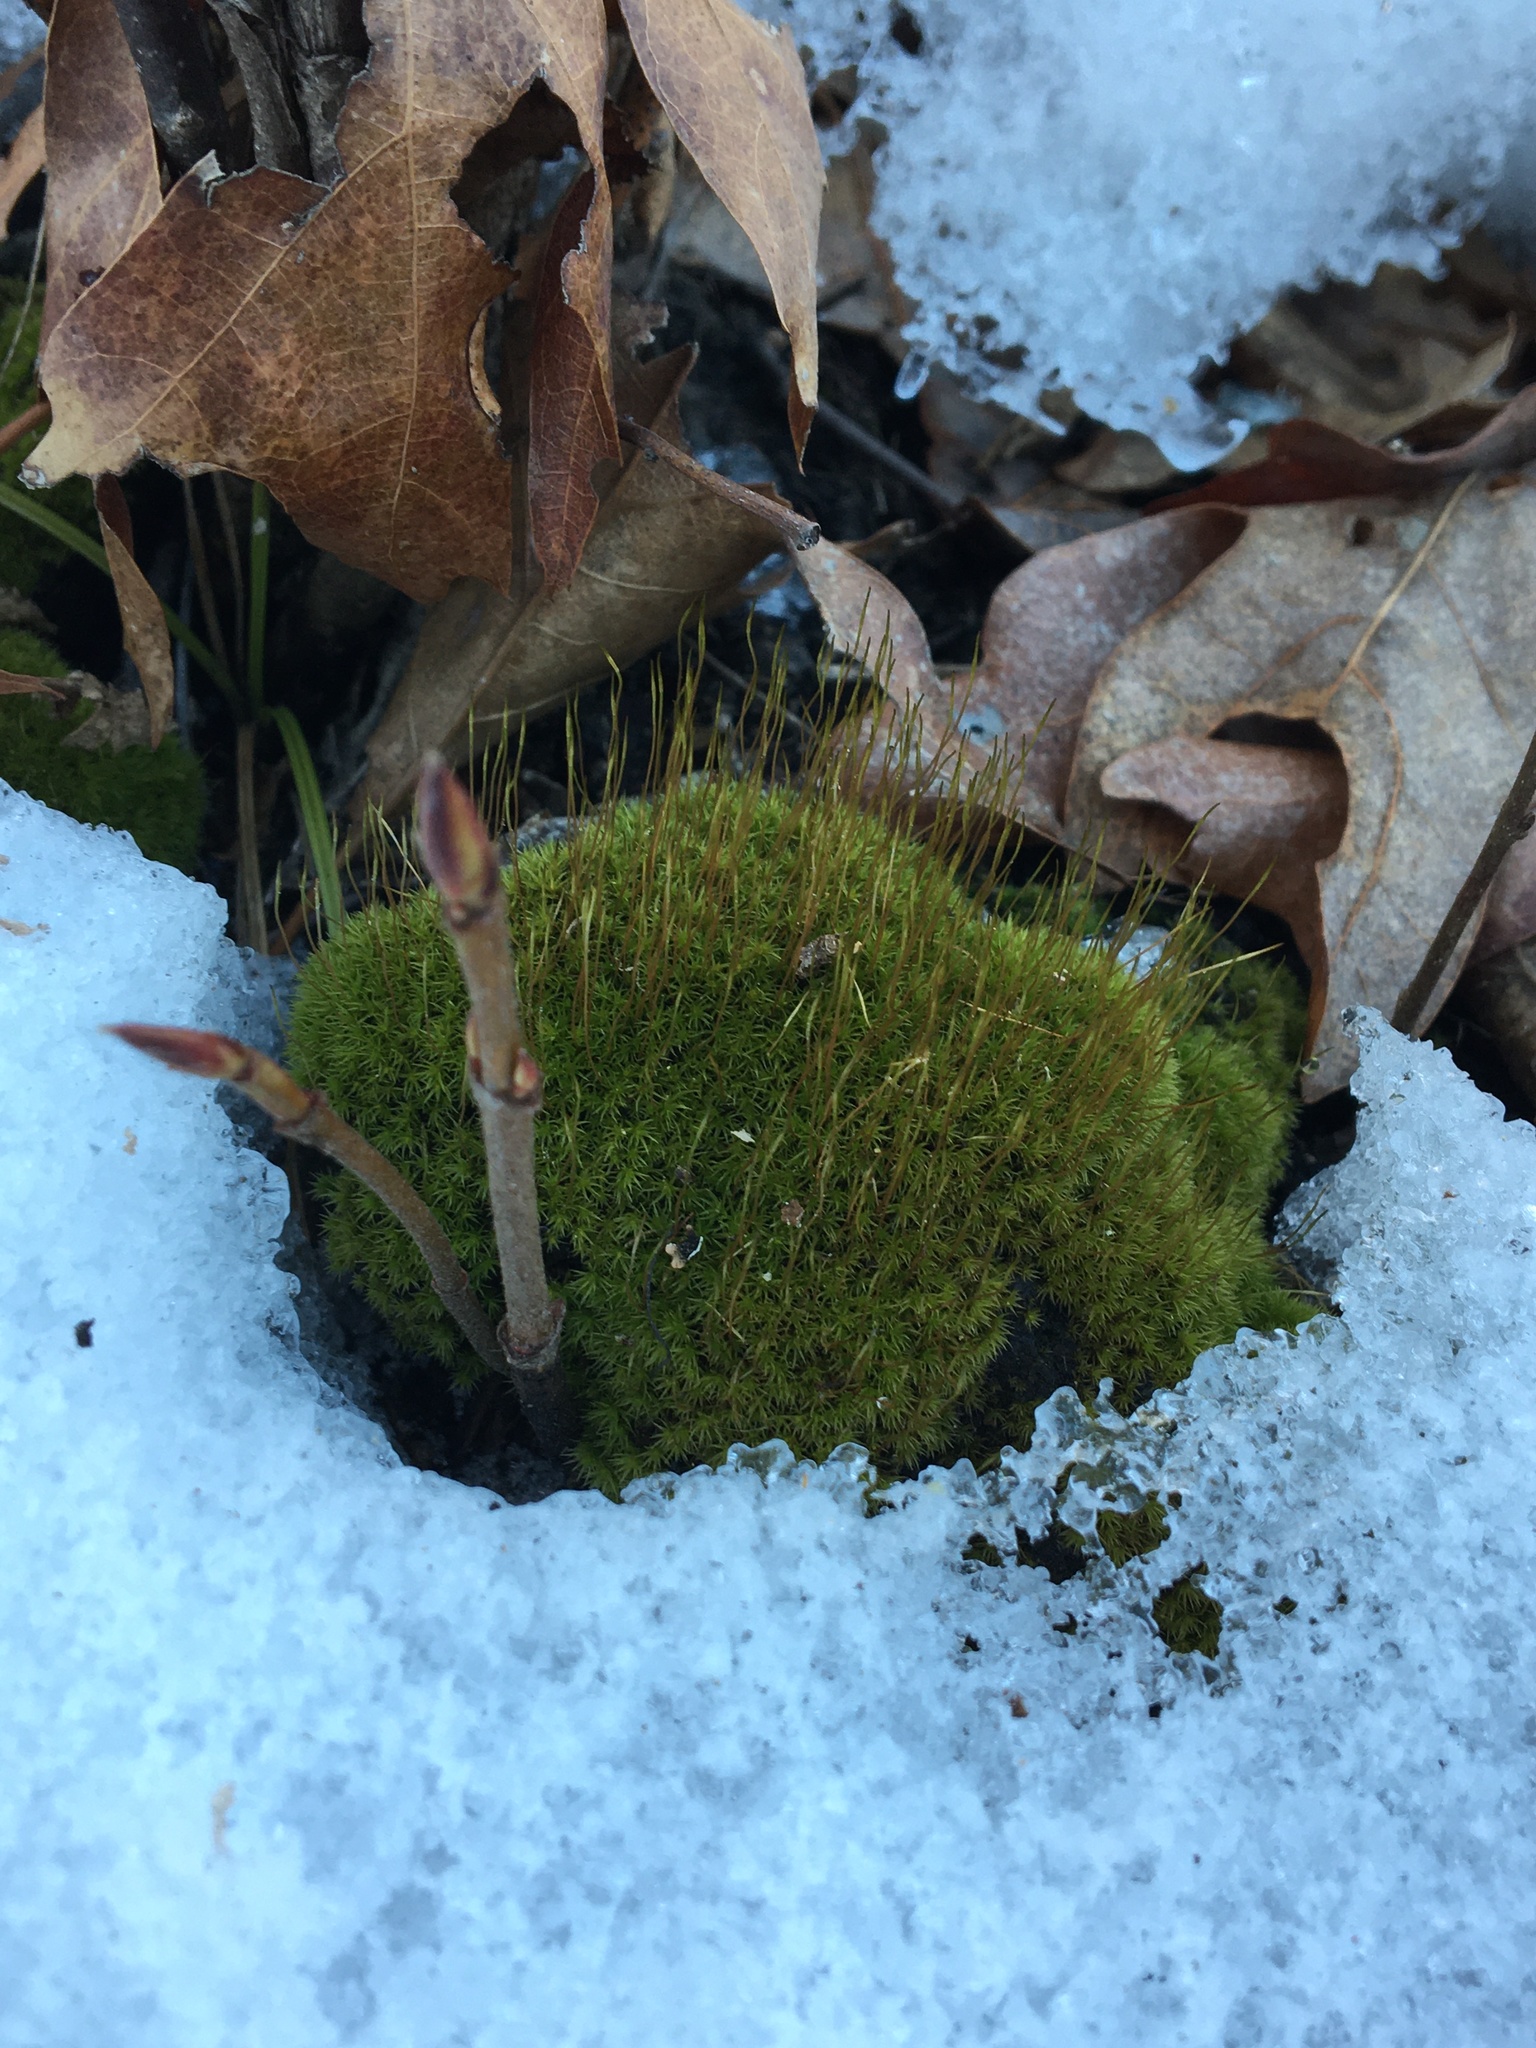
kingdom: Plantae
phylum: Bryophyta
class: Polytrichopsida
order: Polytrichales
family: Polytrichaceae
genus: Atrichum
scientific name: Atrichum
